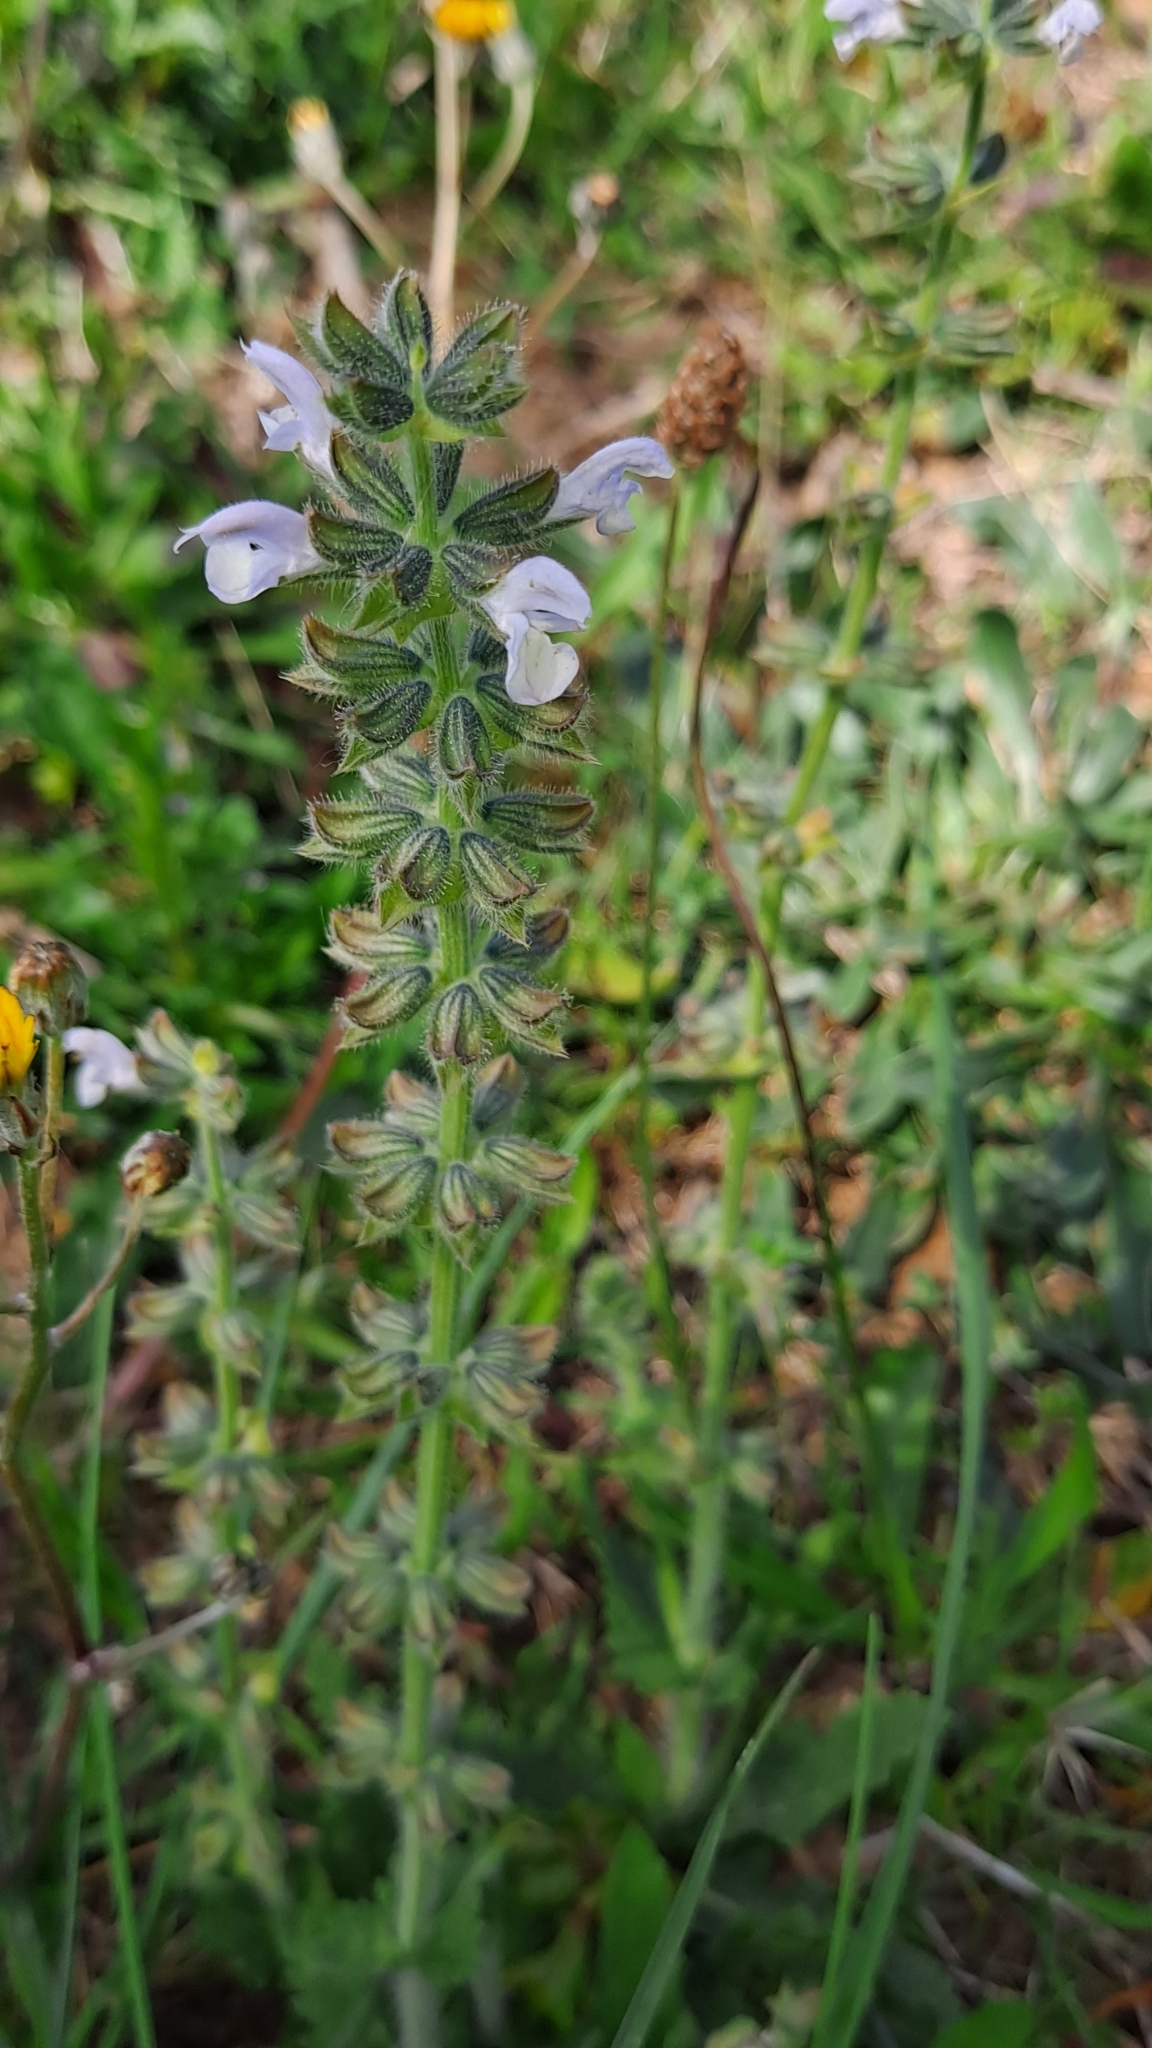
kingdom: Plantae
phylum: Tracheophyta
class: Magnoliopsida
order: Lamiales
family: Lamiaceae
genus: Salvia
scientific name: Salvia verbenaca
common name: Wild clary
